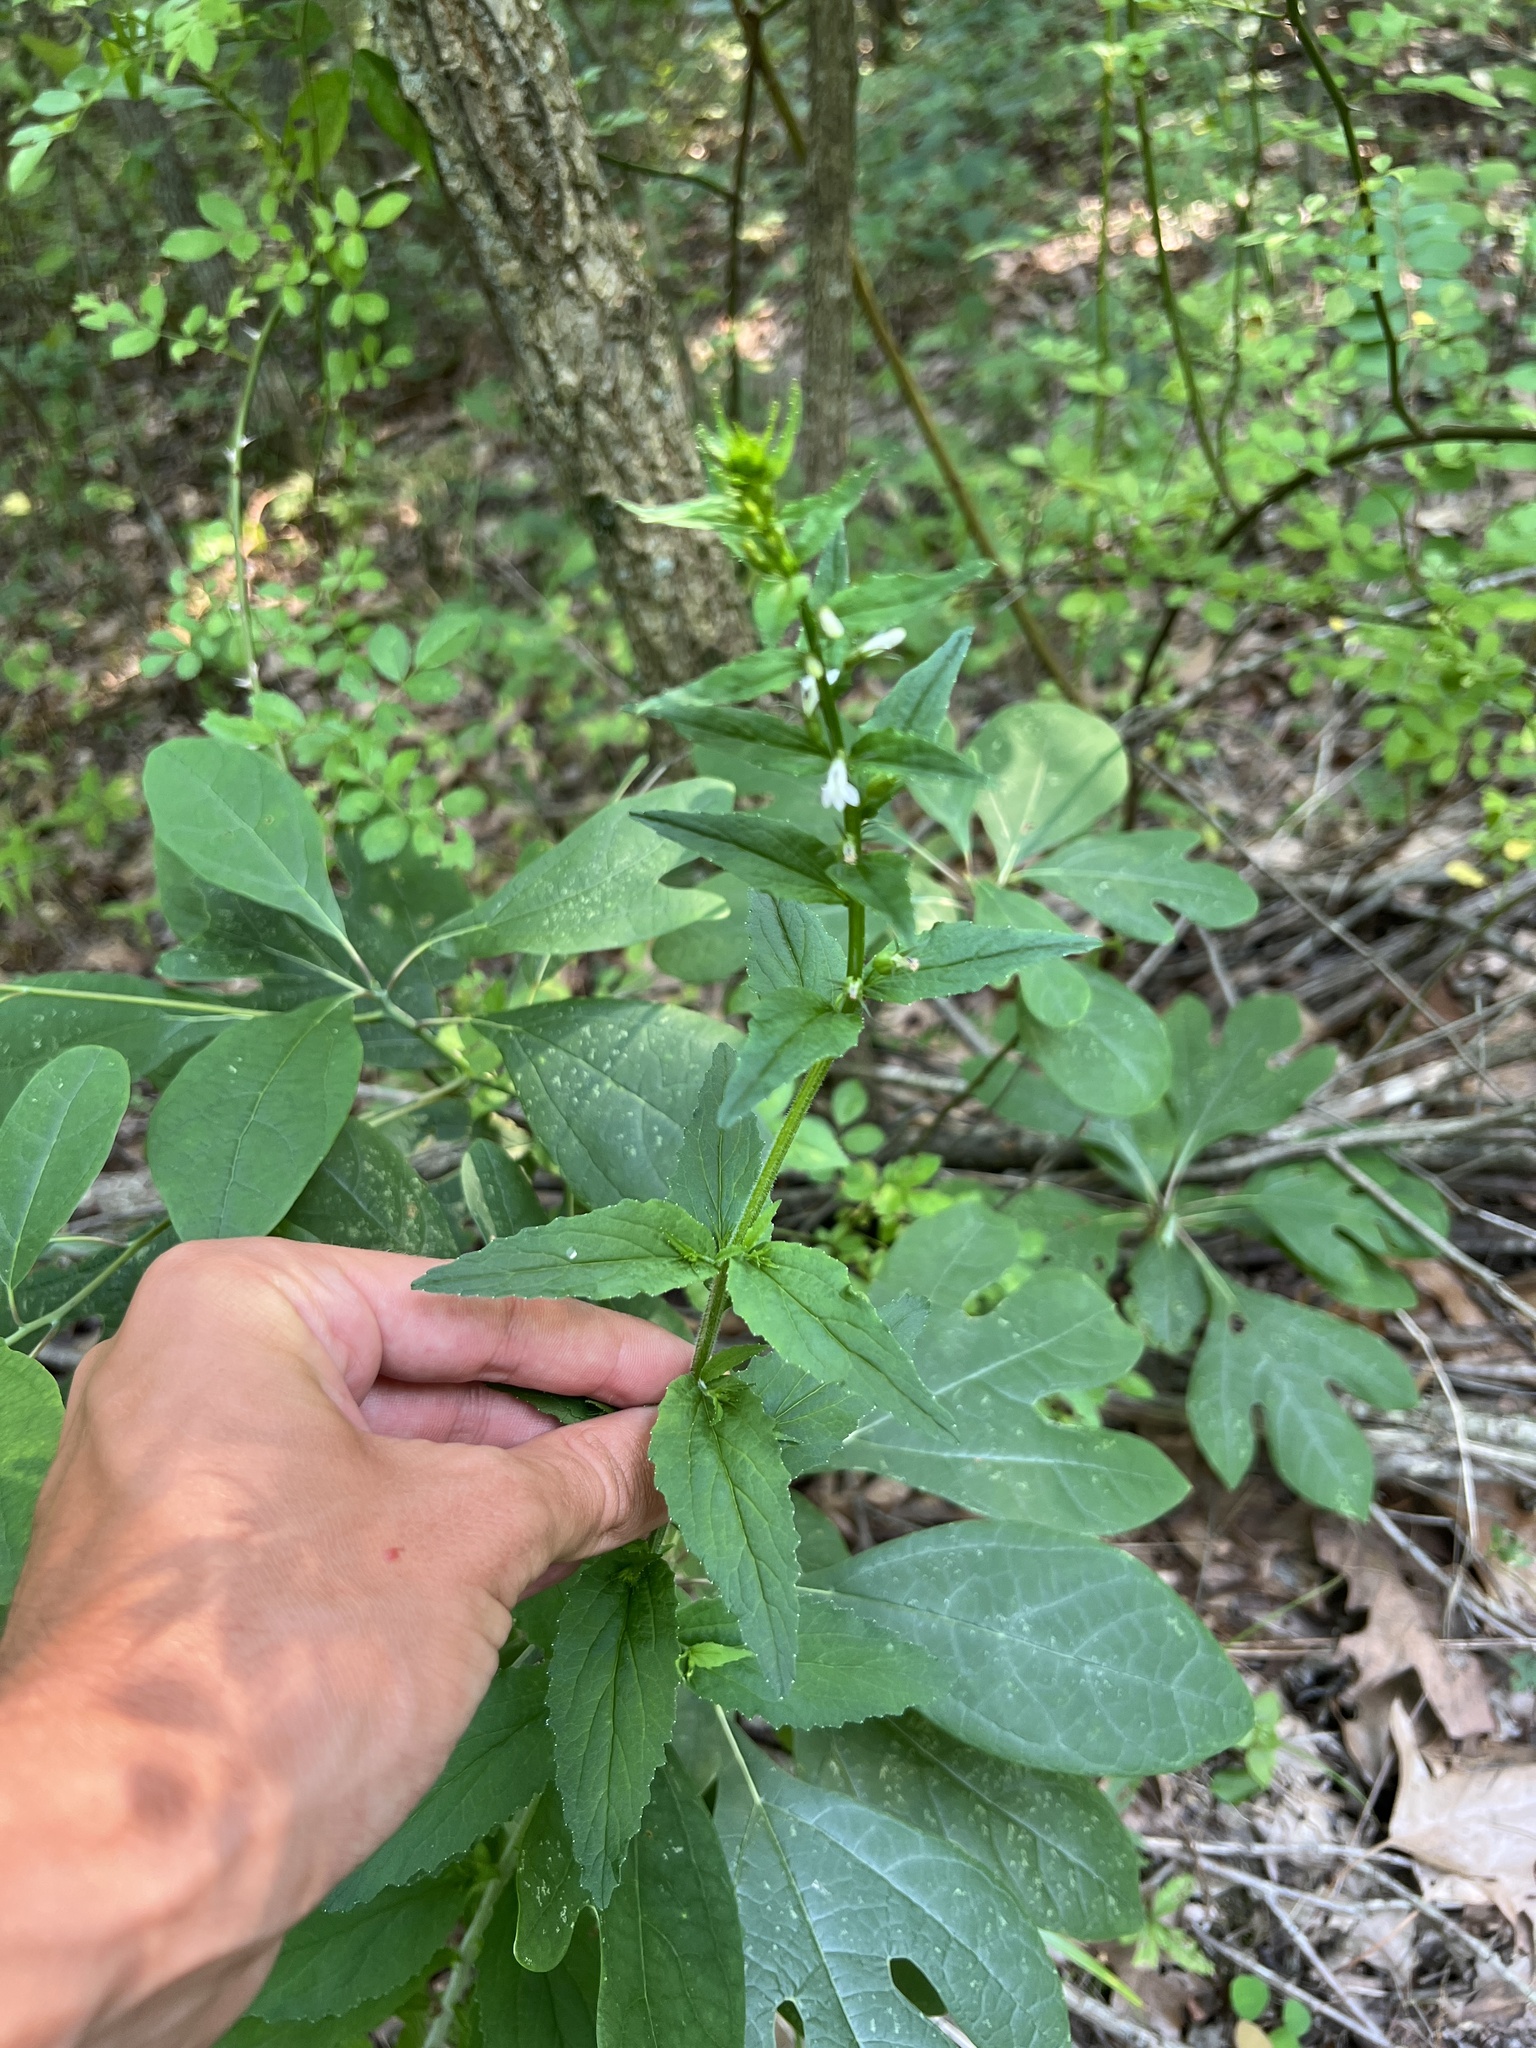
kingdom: Plantae
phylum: Tracheophyta
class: Magnoliopsida
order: Asterales
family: Campanulaceae
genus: Lobelia
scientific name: Lobelia inflata
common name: Indian tobacco
